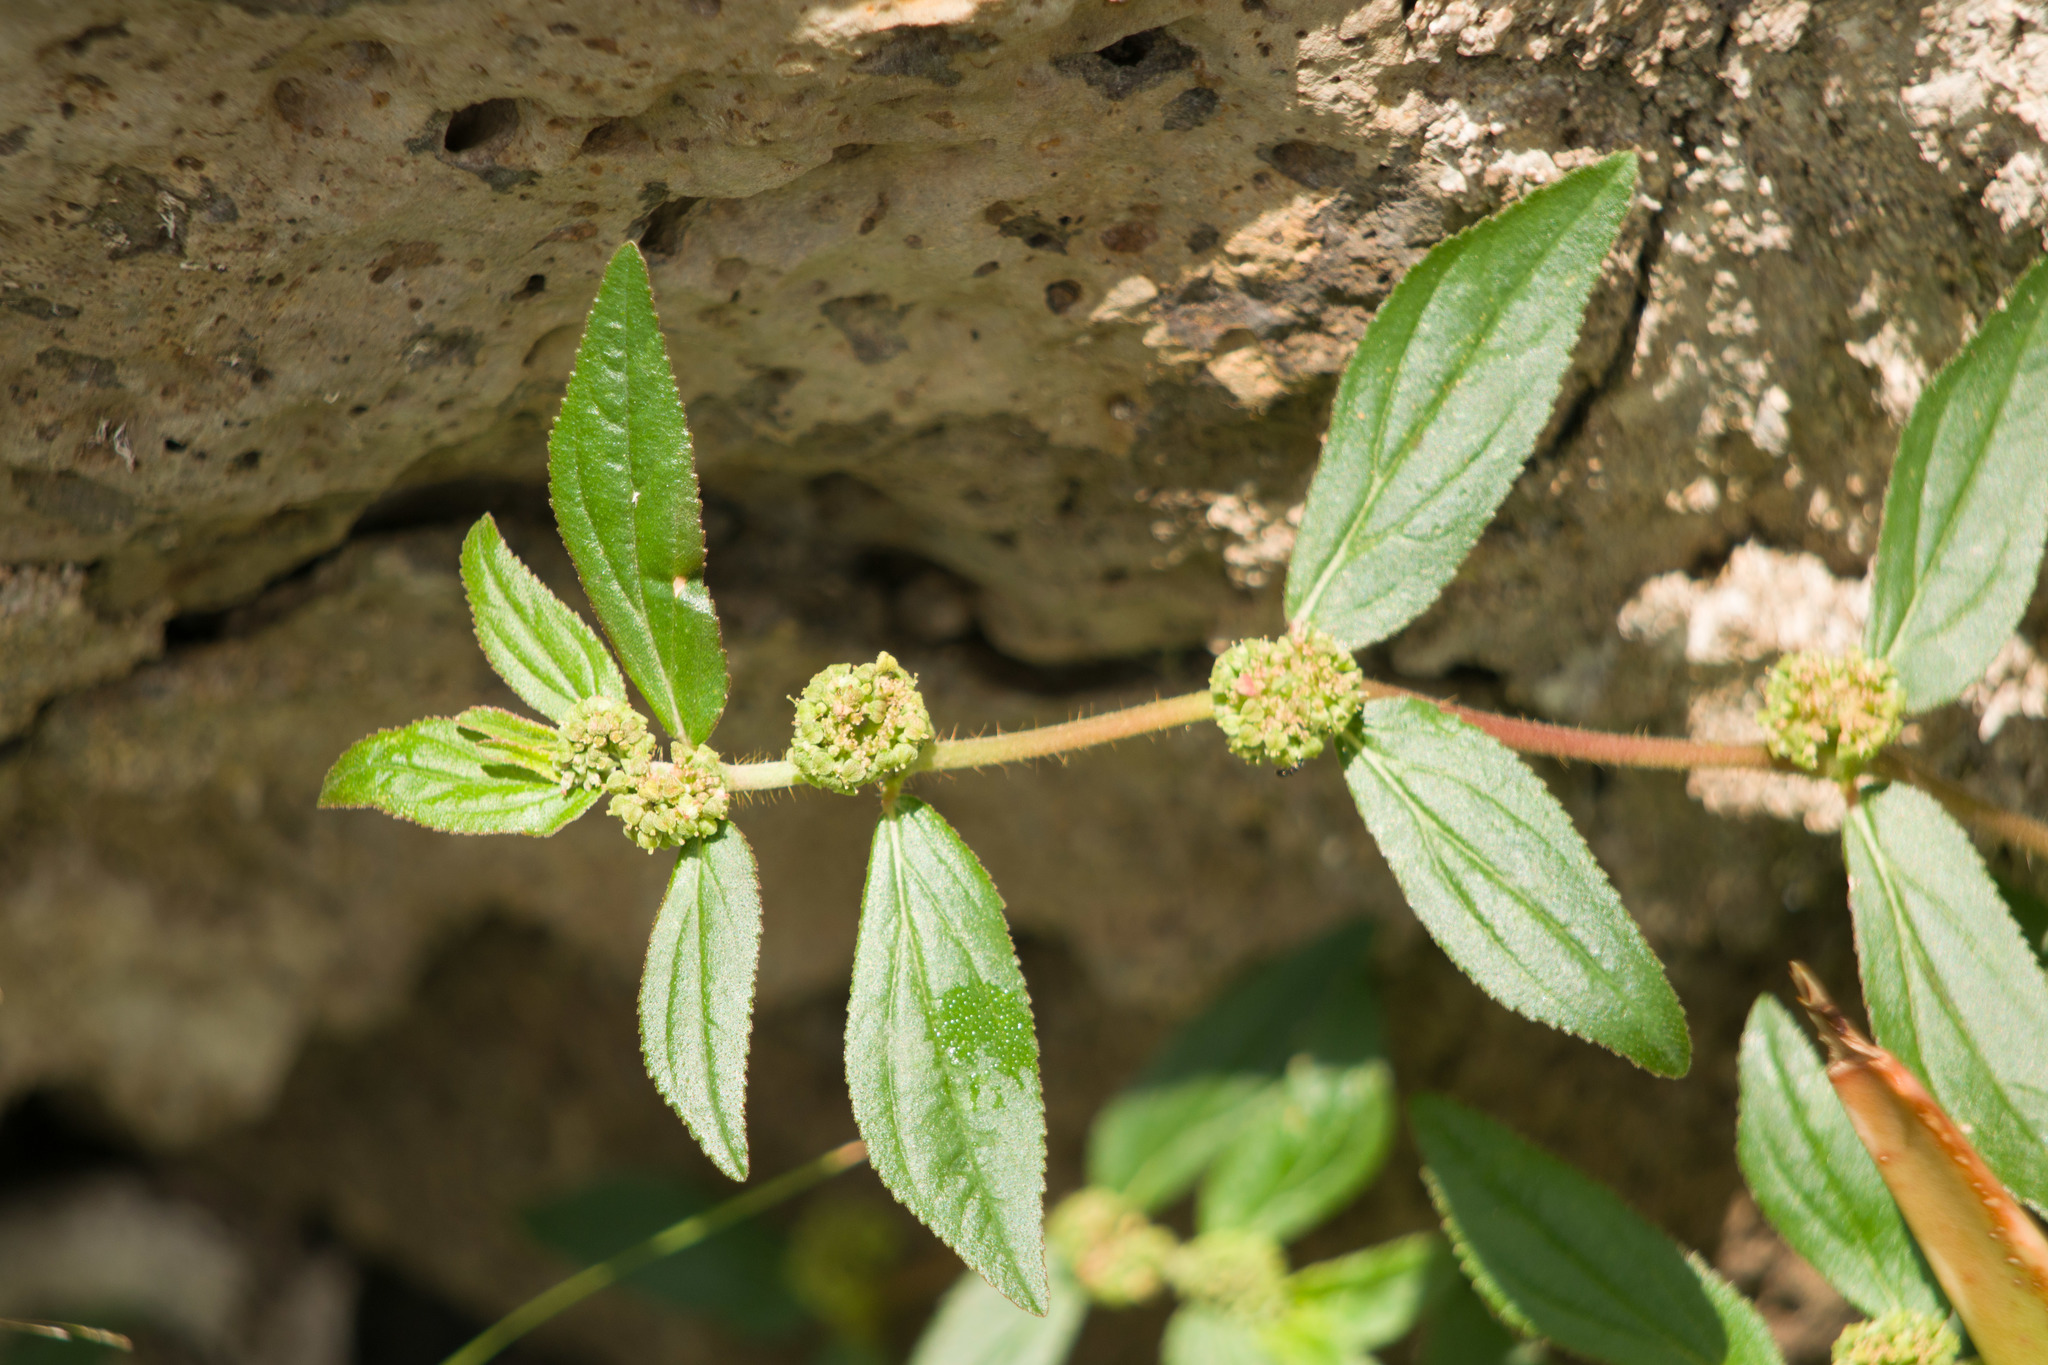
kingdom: Plantae
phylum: Tracheophyta
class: Magnoliopsida
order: Malpighiales
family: Euphorbiaceae
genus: Euphorbia
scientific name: Euphorbia hirta
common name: Pillpod sandmat
